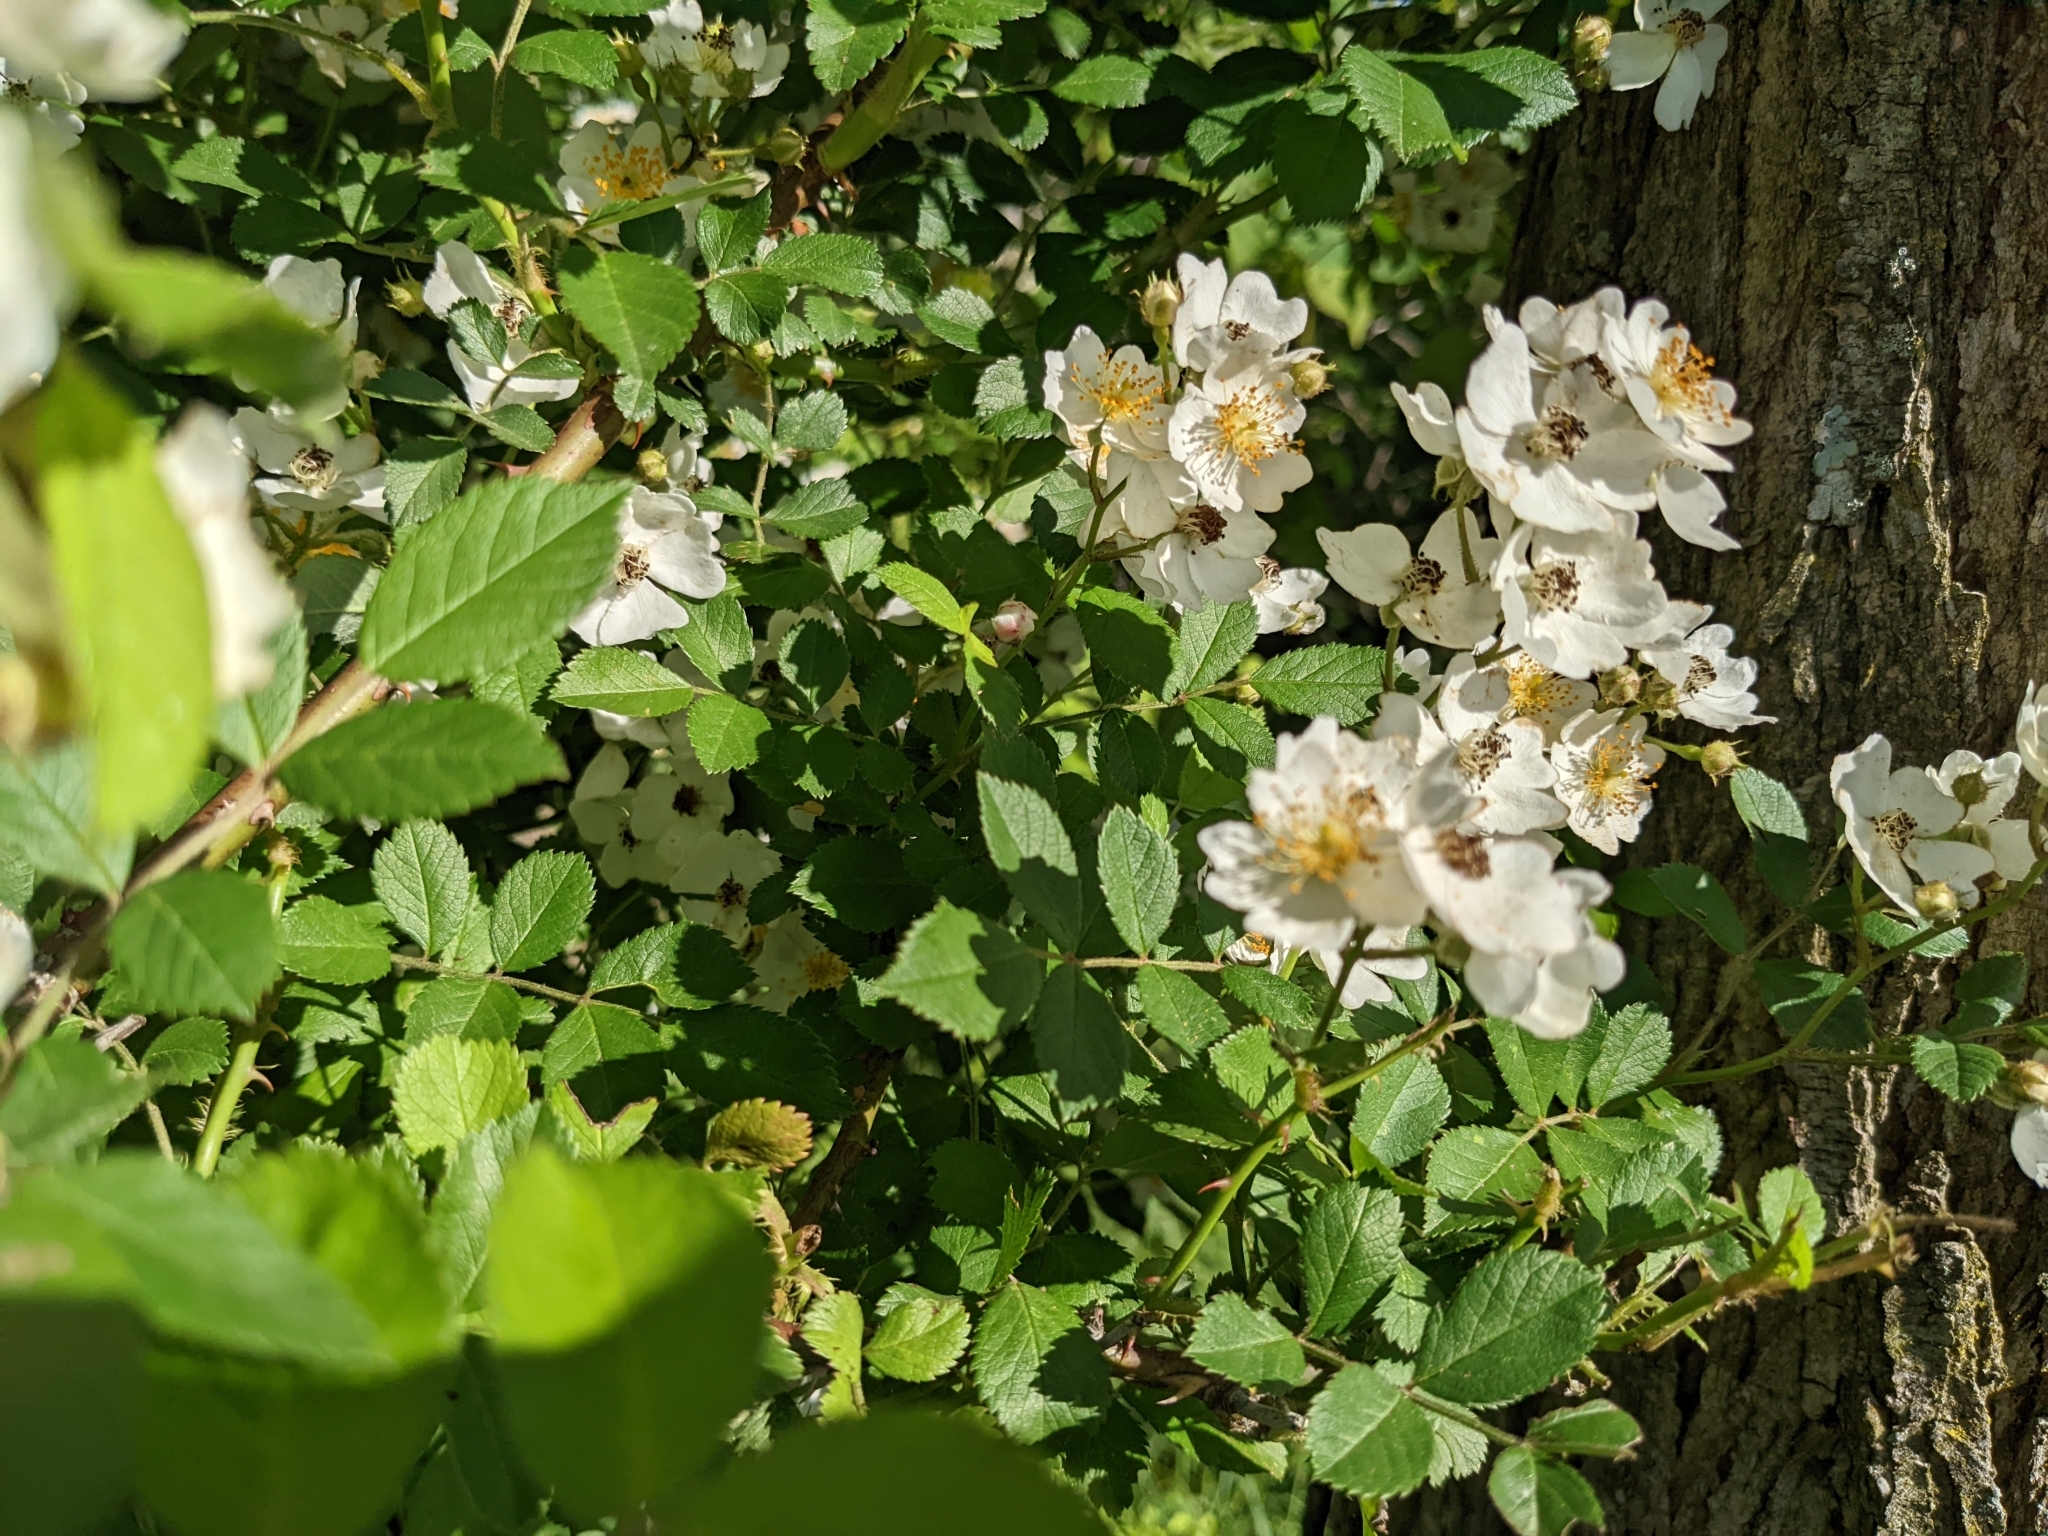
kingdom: Plantae
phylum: Tracheophyta
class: Magnoliopsida
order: Rosales
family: Rosaceae
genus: Rosa
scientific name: Rosa multiflora
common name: Multiflora rose
